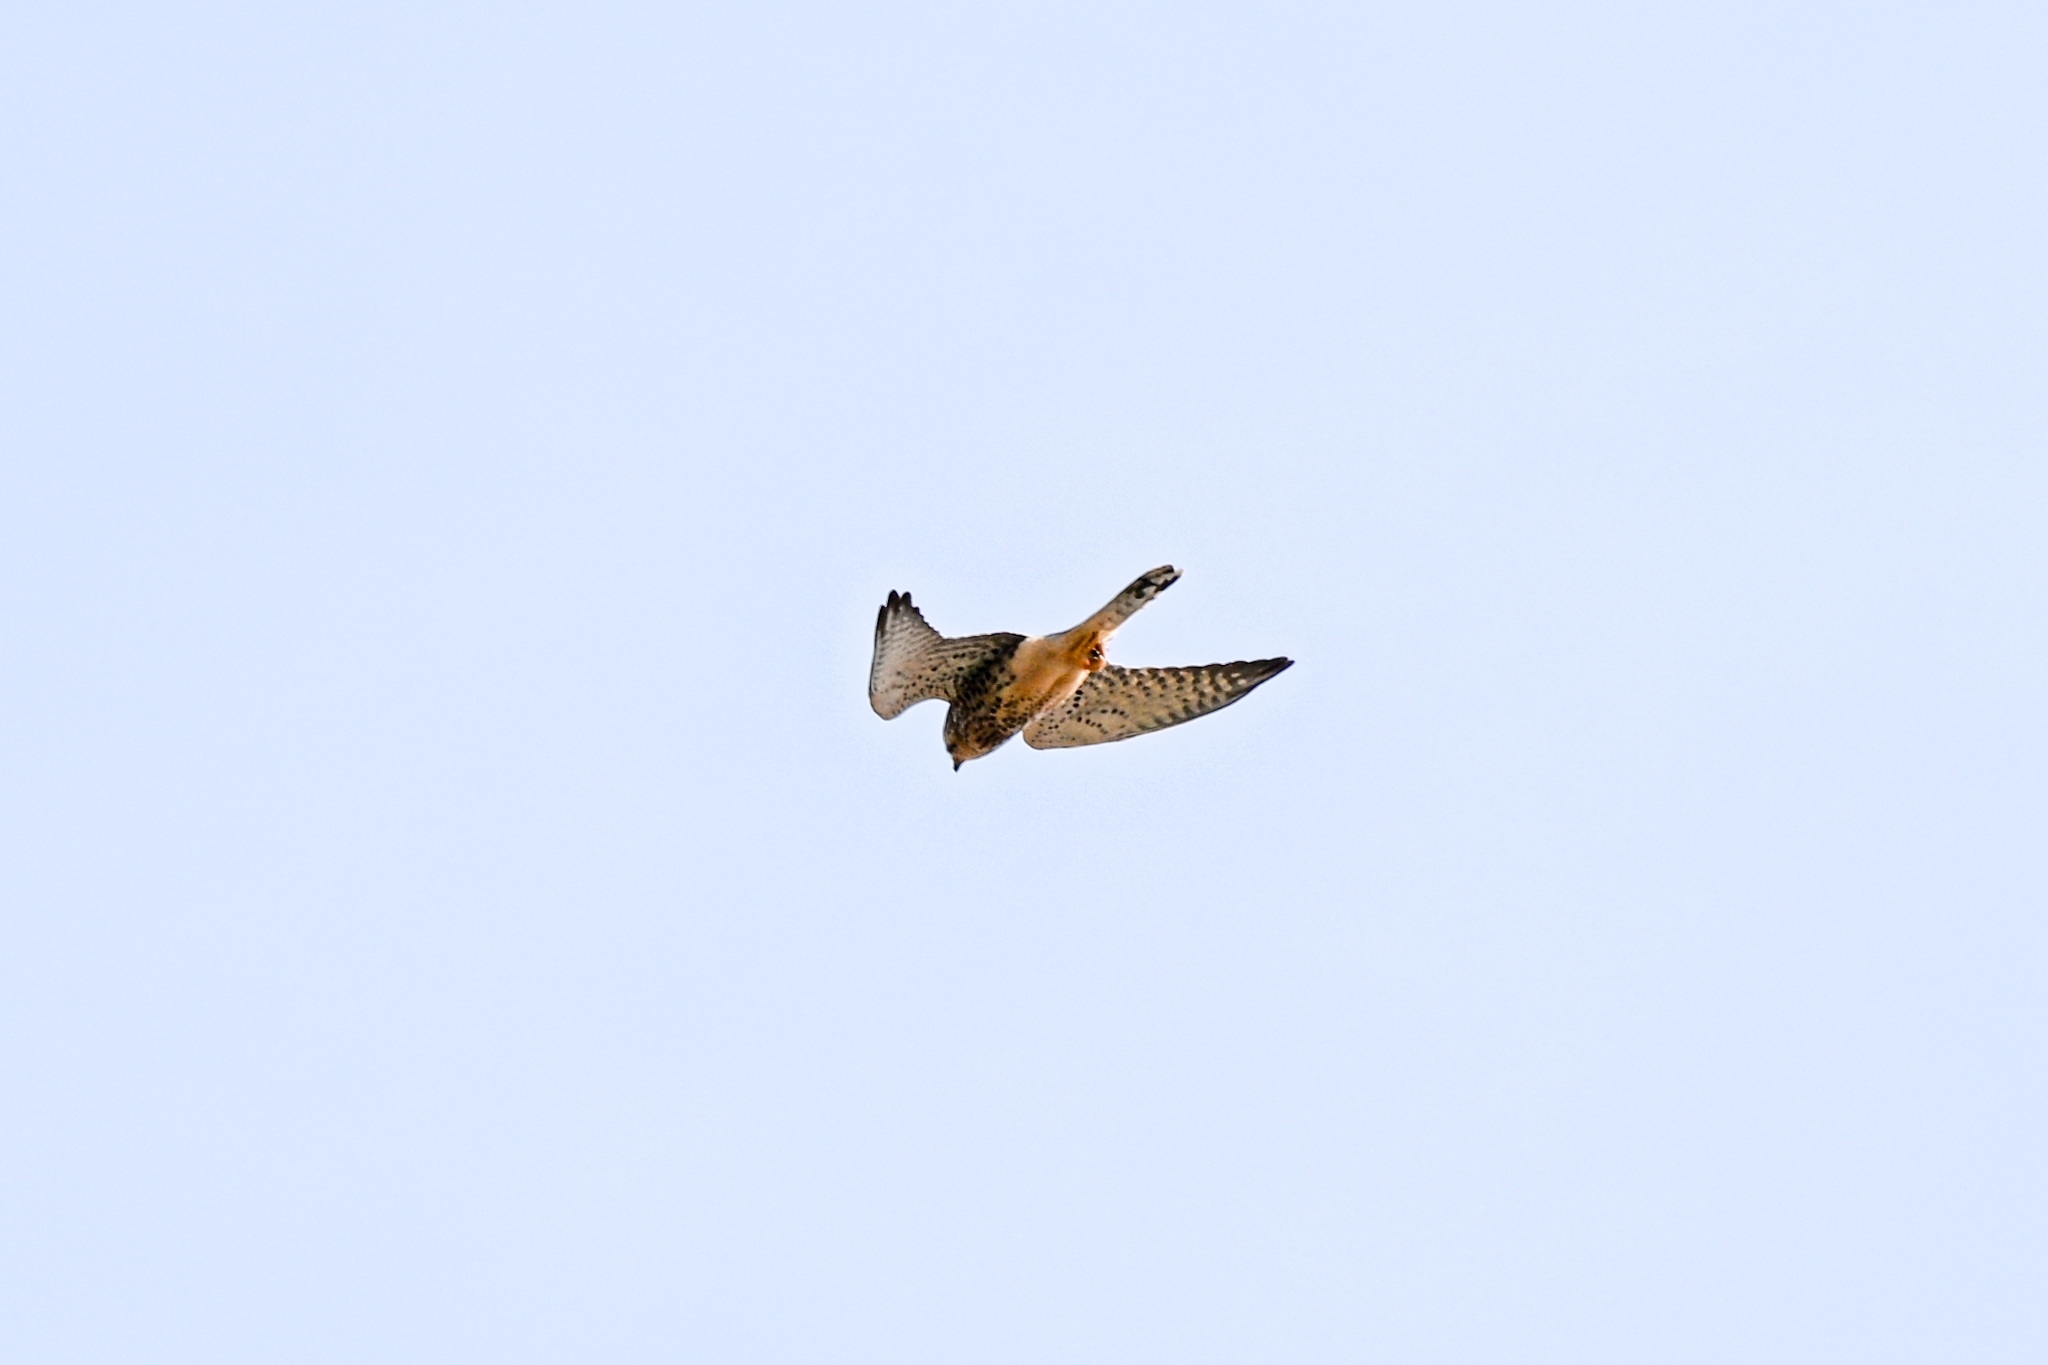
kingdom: Animalia
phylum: Chordata
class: Aves
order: Falconiformes
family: Falconidae
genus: Falco
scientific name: Falco tinnunculus
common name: Common kestrel
